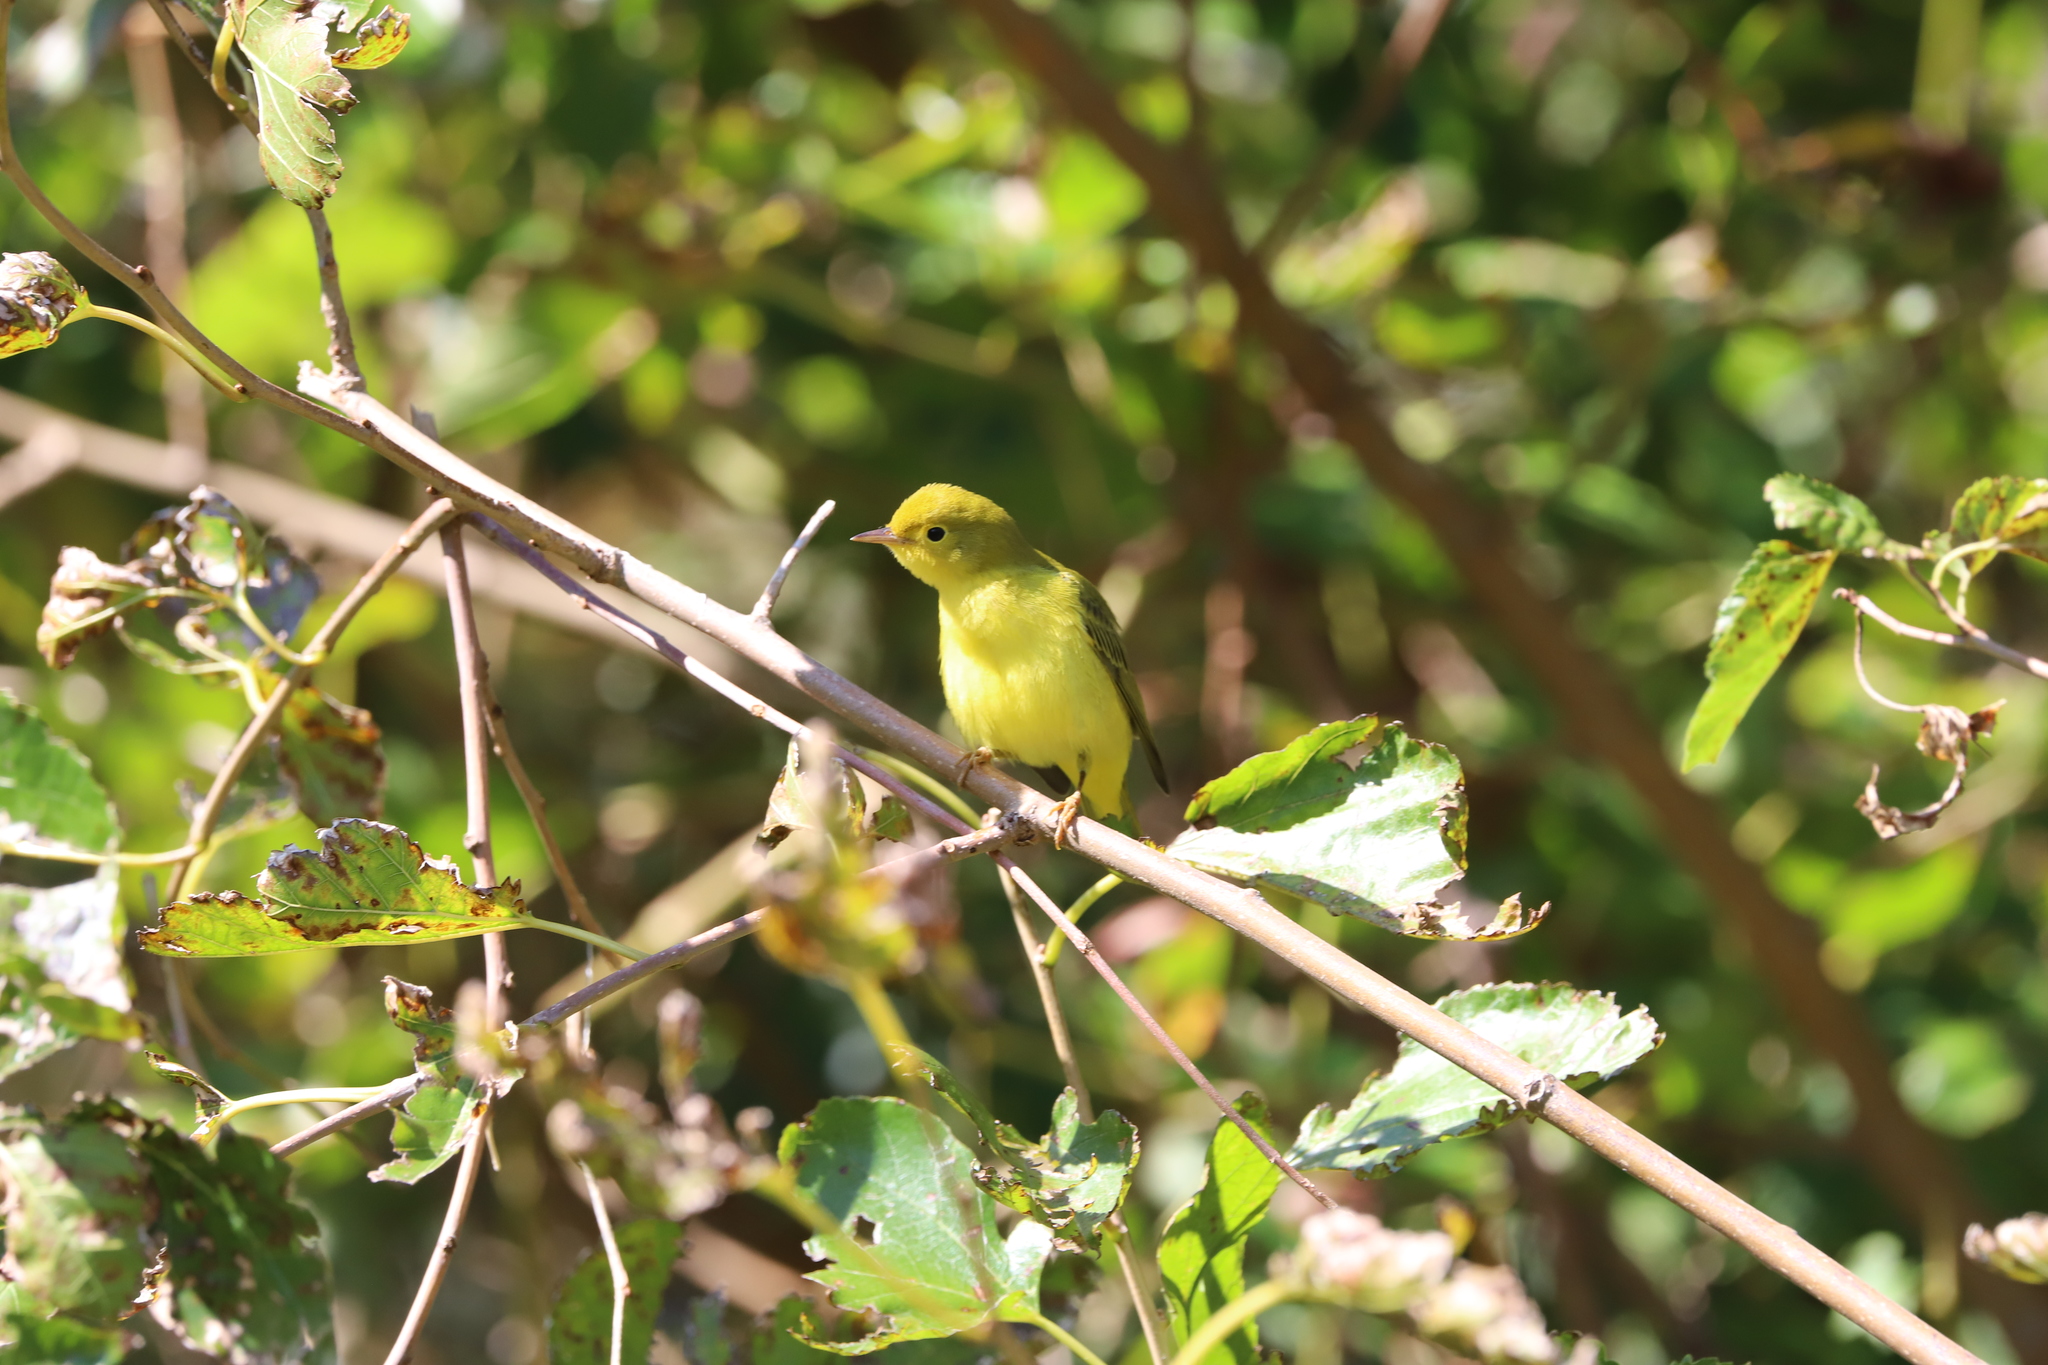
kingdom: Animalia
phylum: Chordata
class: Aves
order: Passeriformes
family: Parulidae
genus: Setophaga
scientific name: Setophaga petechia
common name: Yellow warbler
